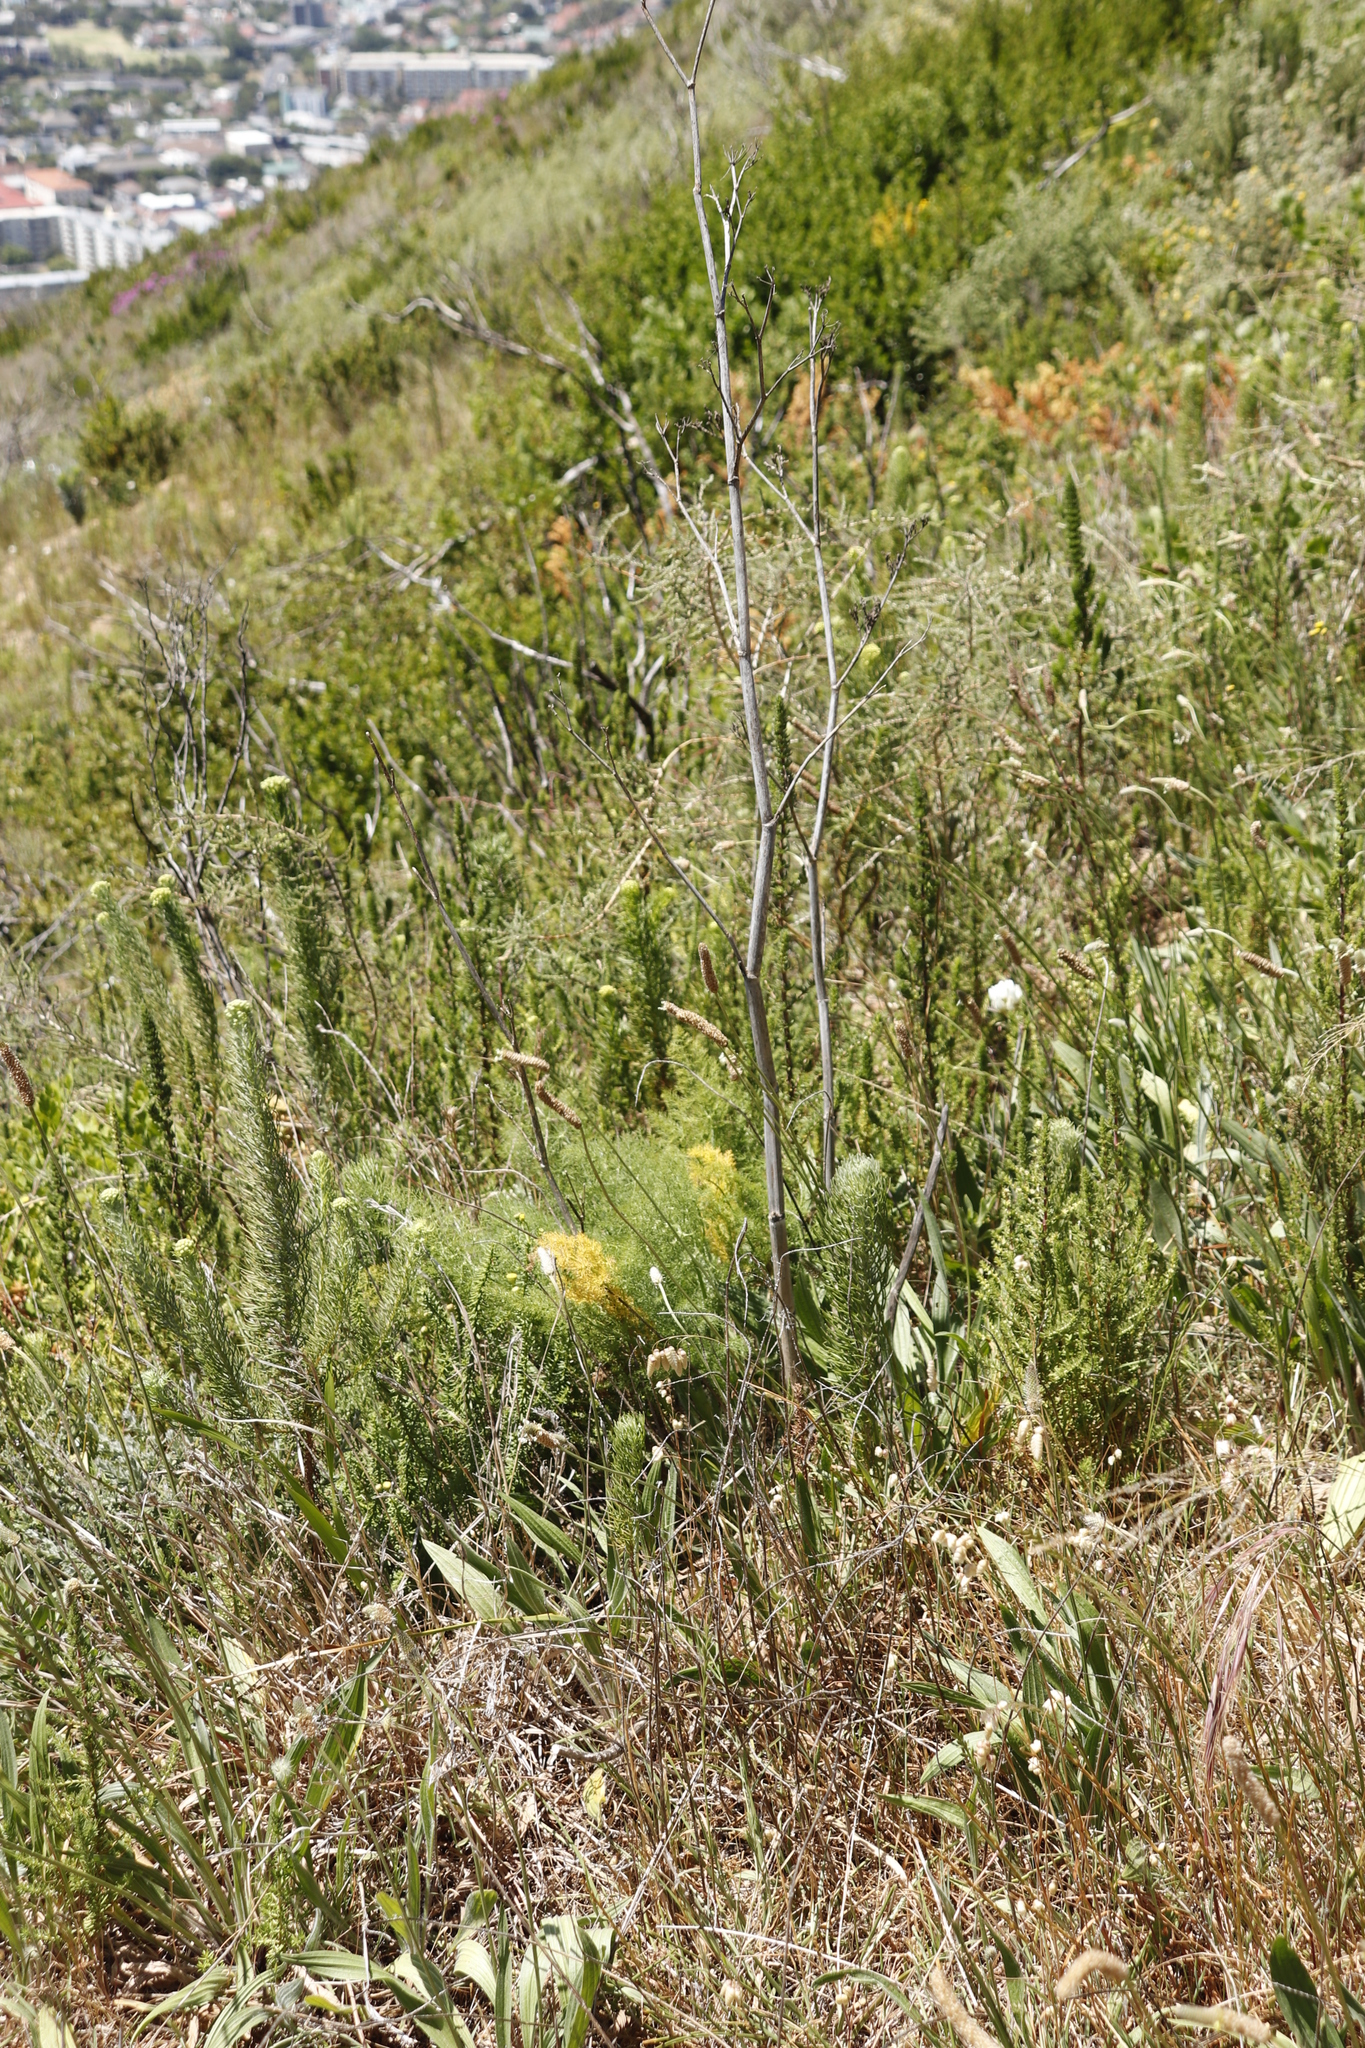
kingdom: Plantae
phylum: Tracheophyta
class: Magnoliopsida
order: Apiales
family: Apiaceae
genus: Foeniculum
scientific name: Foeniculum vulgare
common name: Fennel
